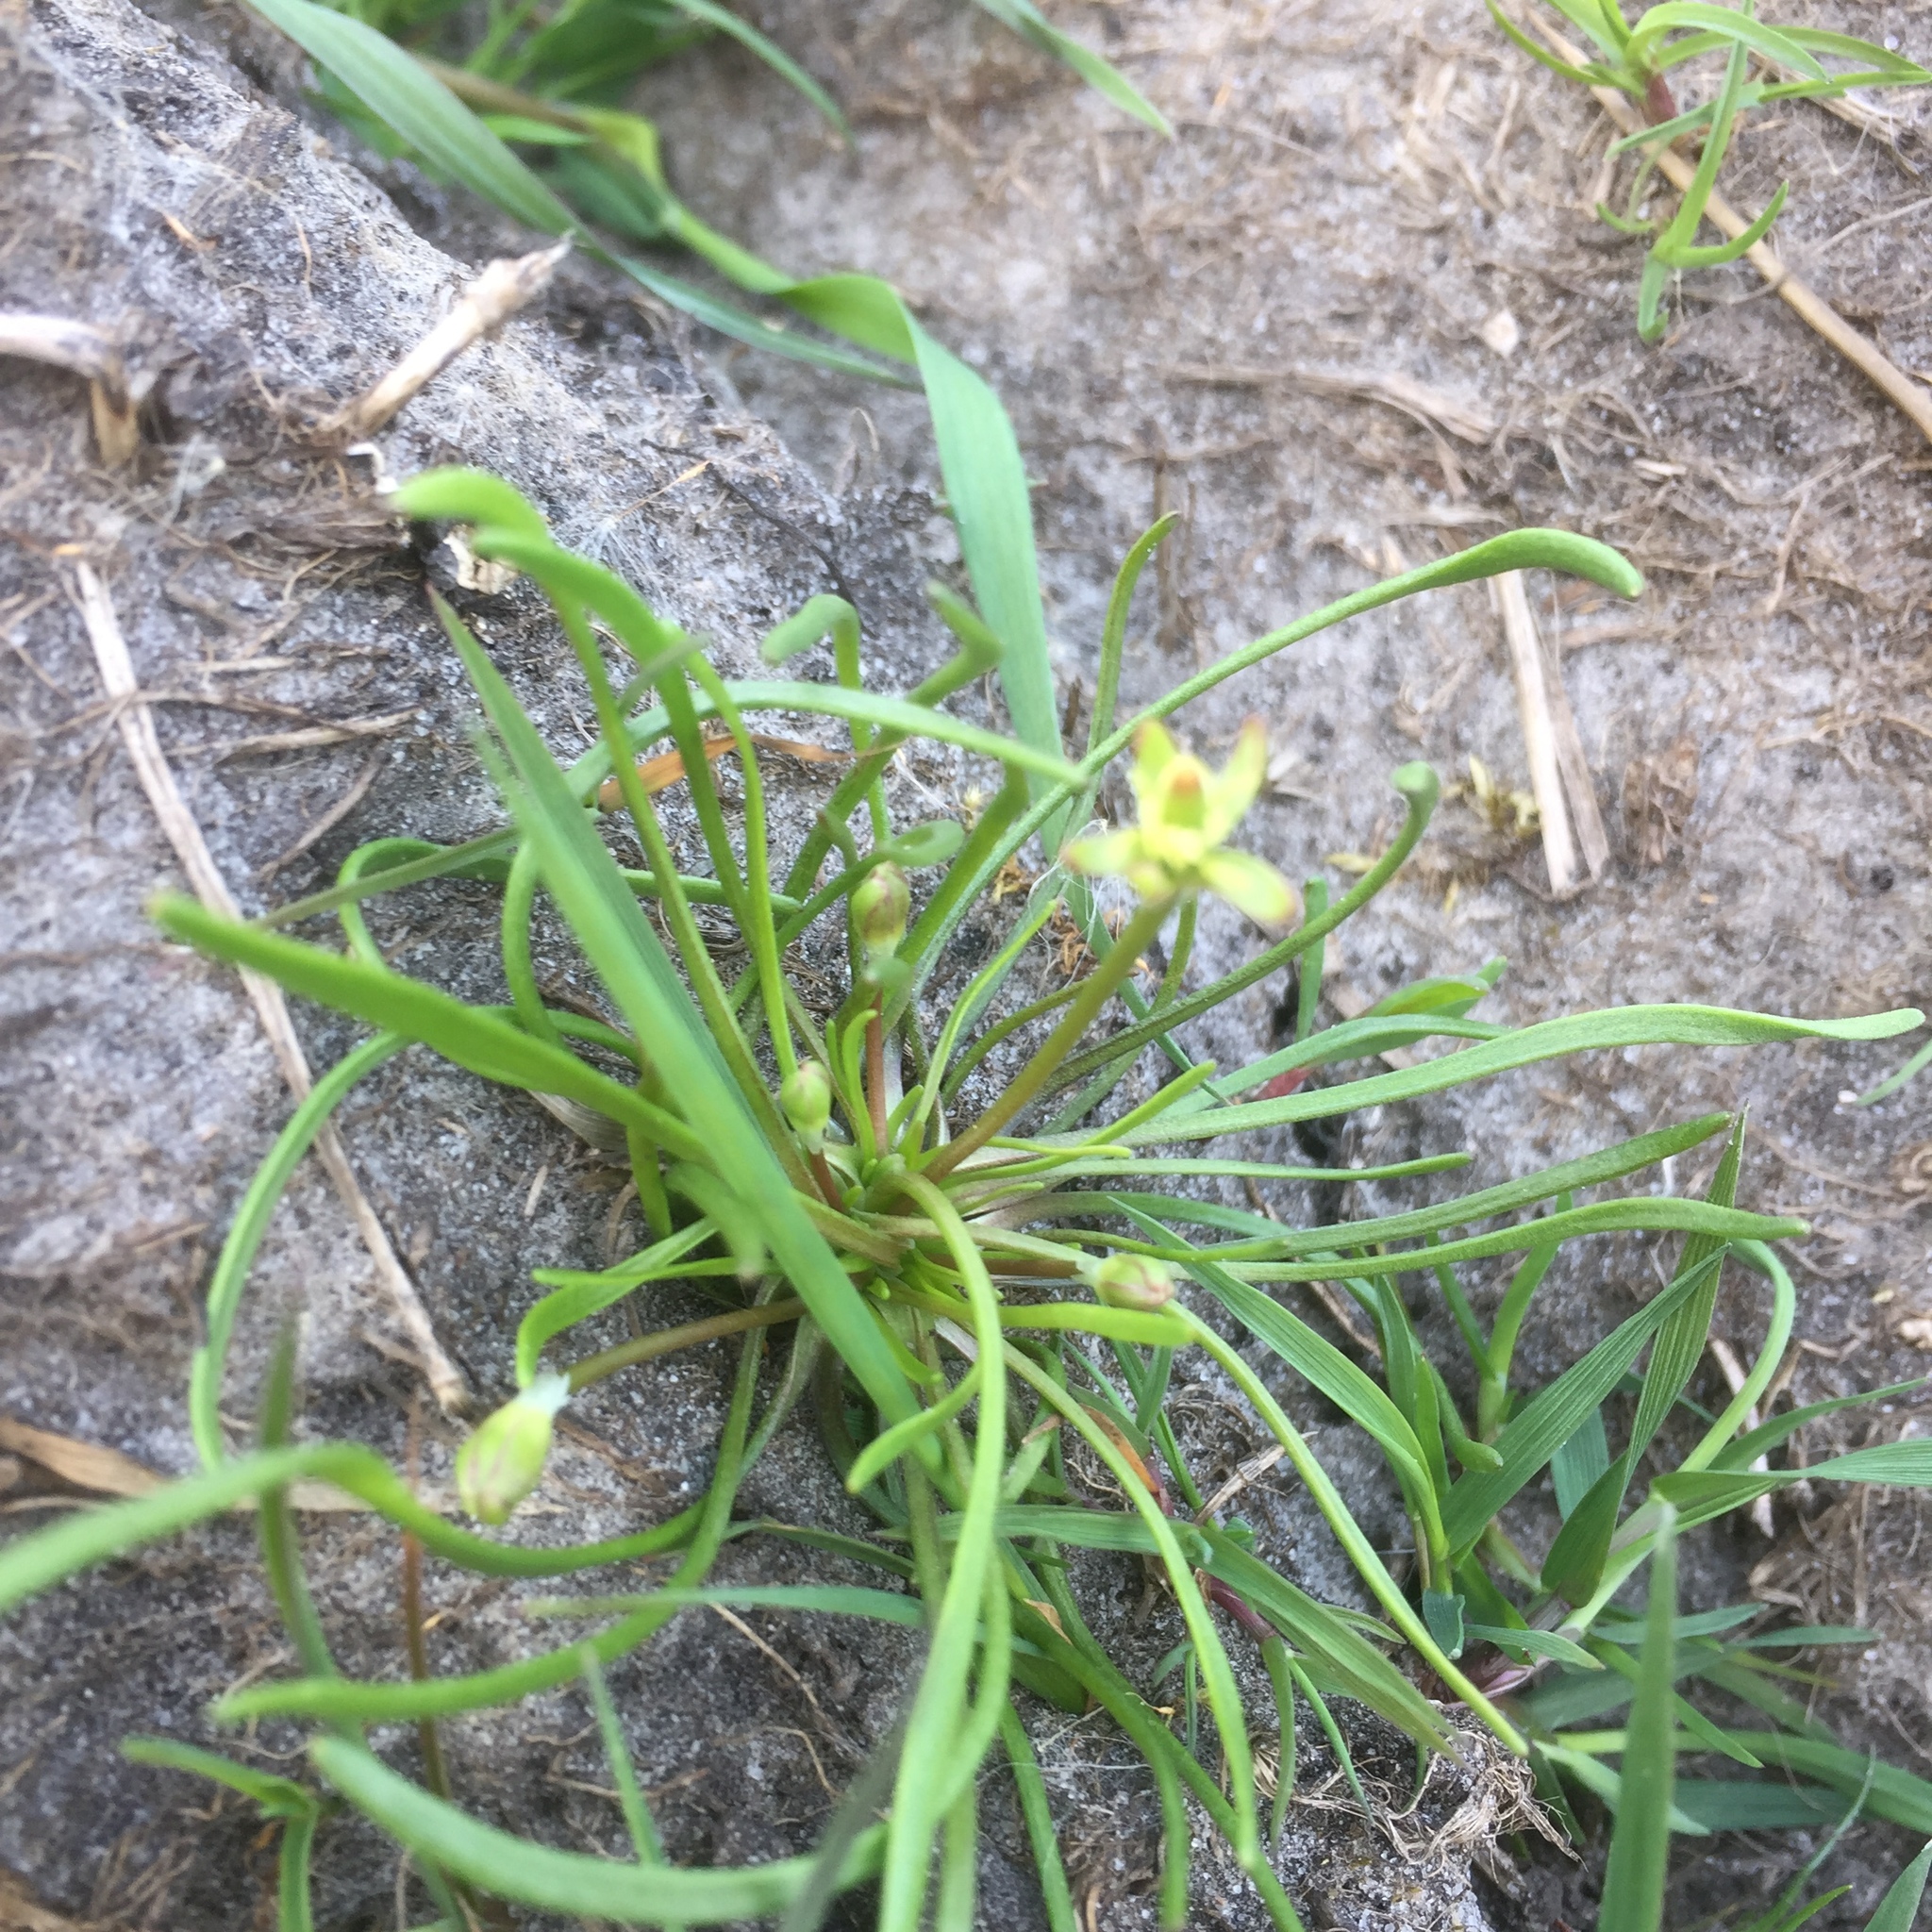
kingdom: Plantae
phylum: Tracheophyta
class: Magnoliopsida
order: Ranunculales
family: Ranunculaceae
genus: Myosurus
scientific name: Myosurus minimus
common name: Mousetail
